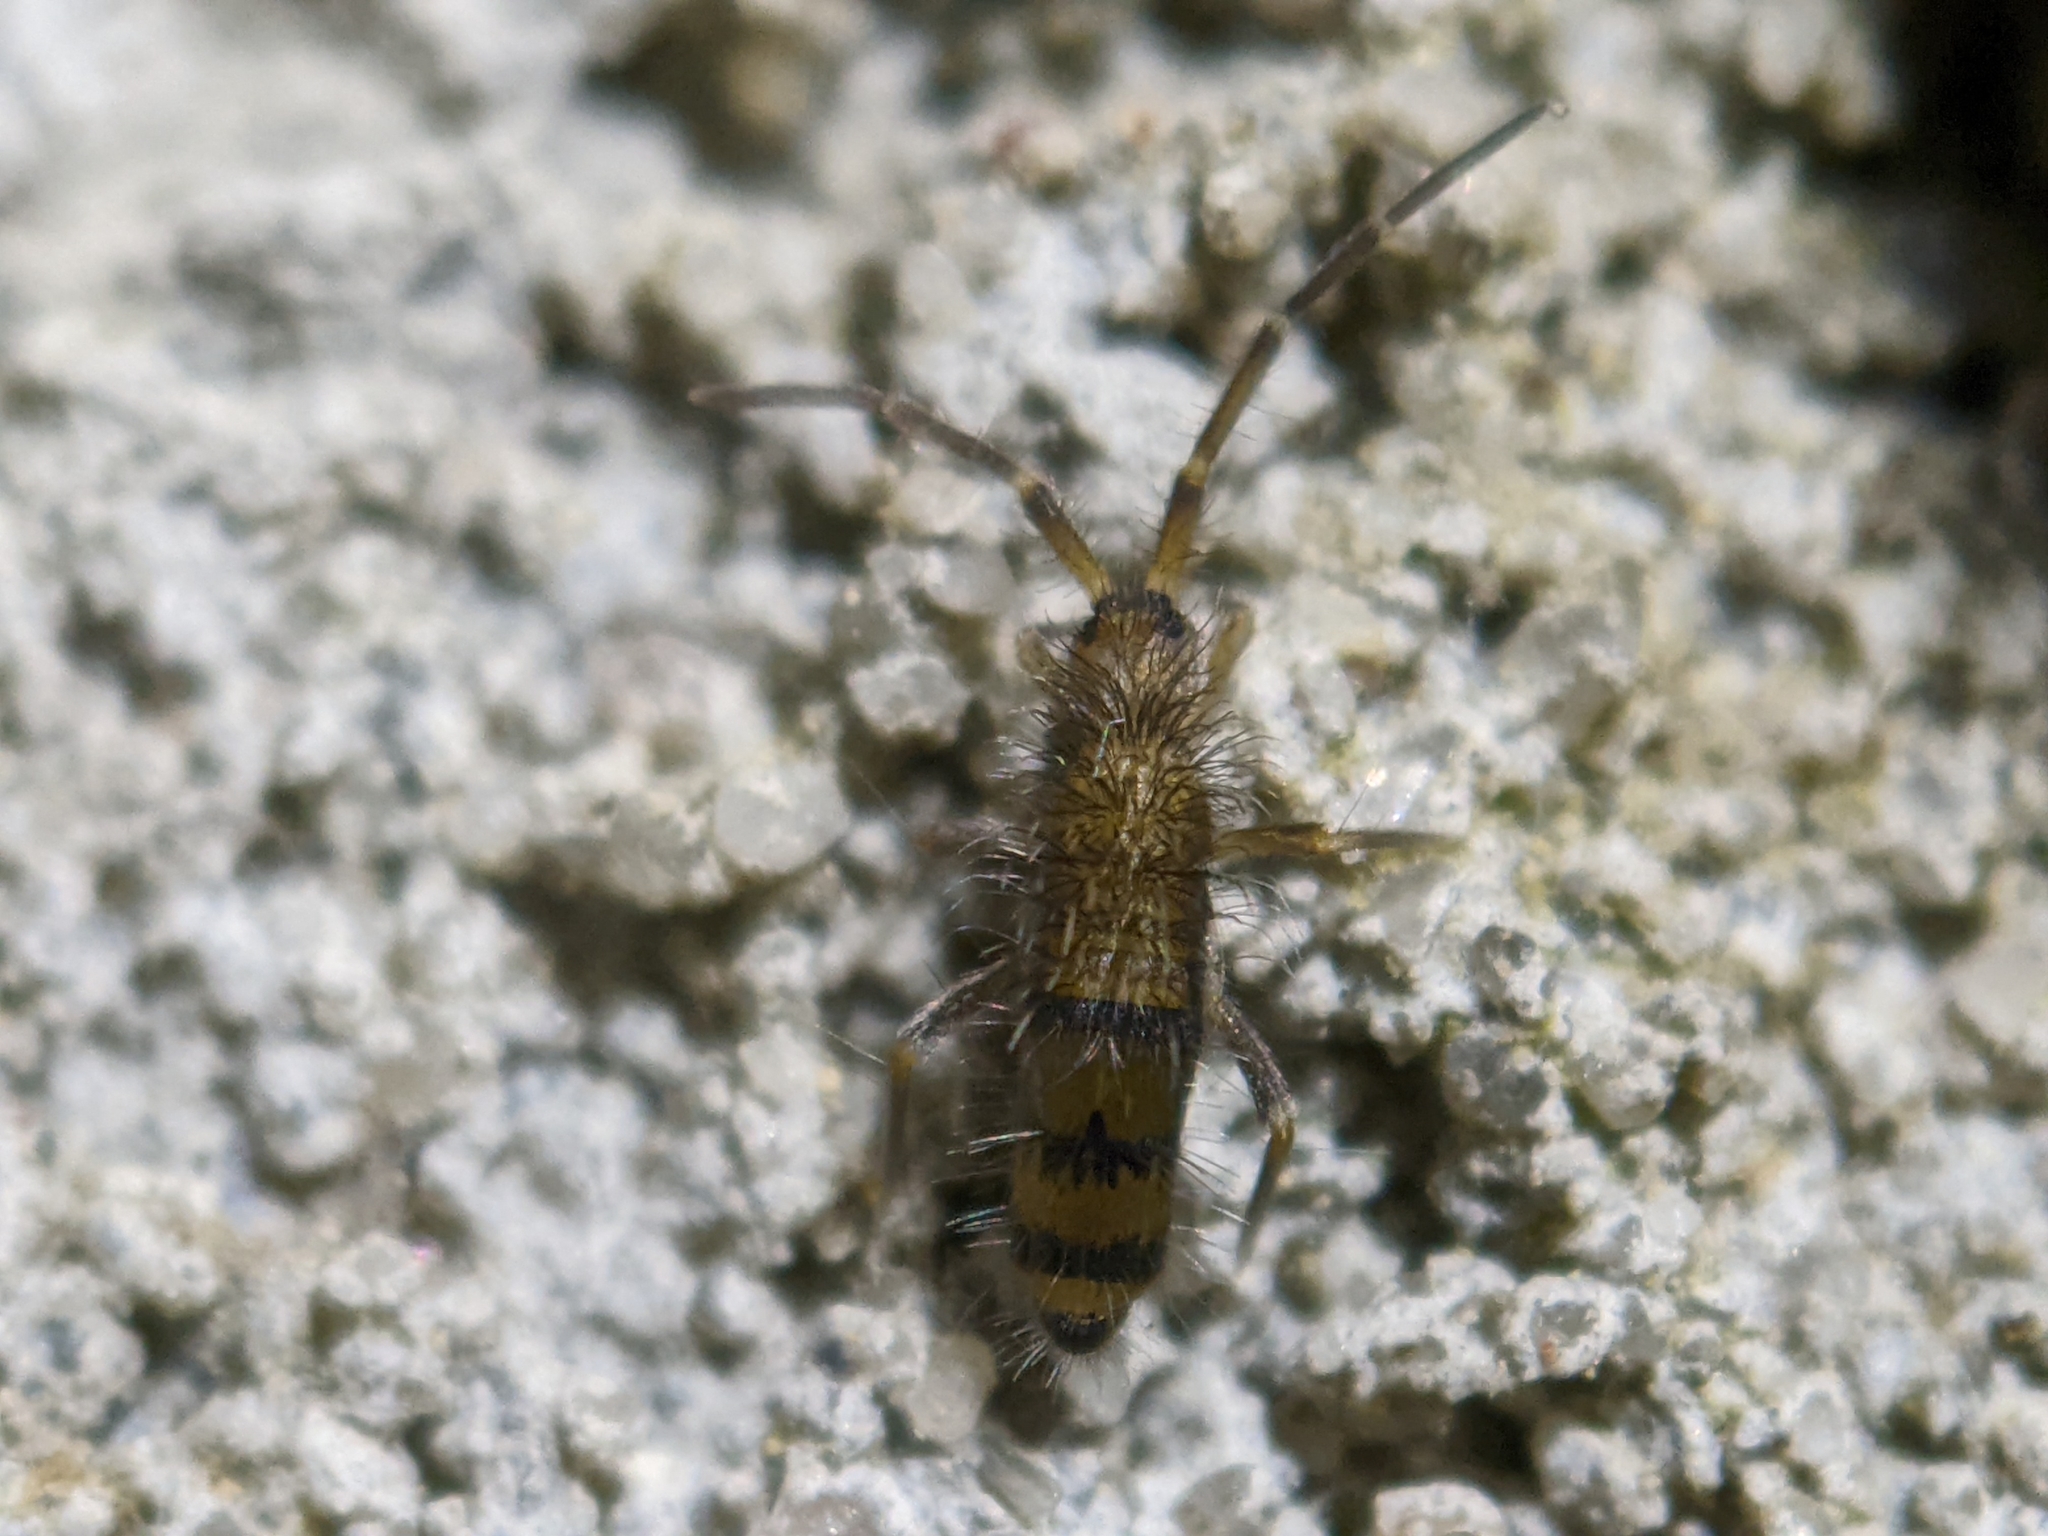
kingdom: Animalia
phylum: Arthropoda
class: Collembola
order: Entomobryomorpha
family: Entomobryidae
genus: Homidia
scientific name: Homidia sauteri
